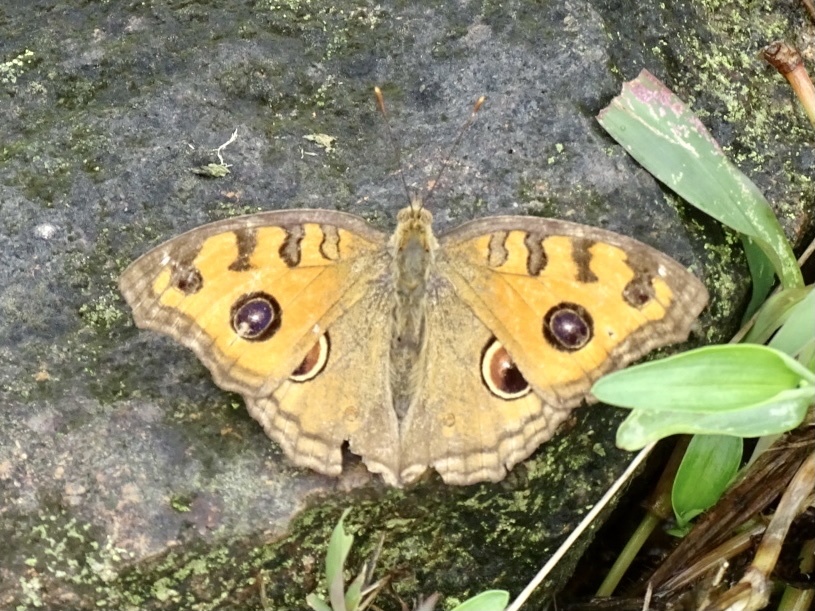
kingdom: Animalia
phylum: Arthropoda
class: Insecta
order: Lepidoptera
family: Nymphalidae
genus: Junonia
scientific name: Junonia almana
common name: Peacock pansy
